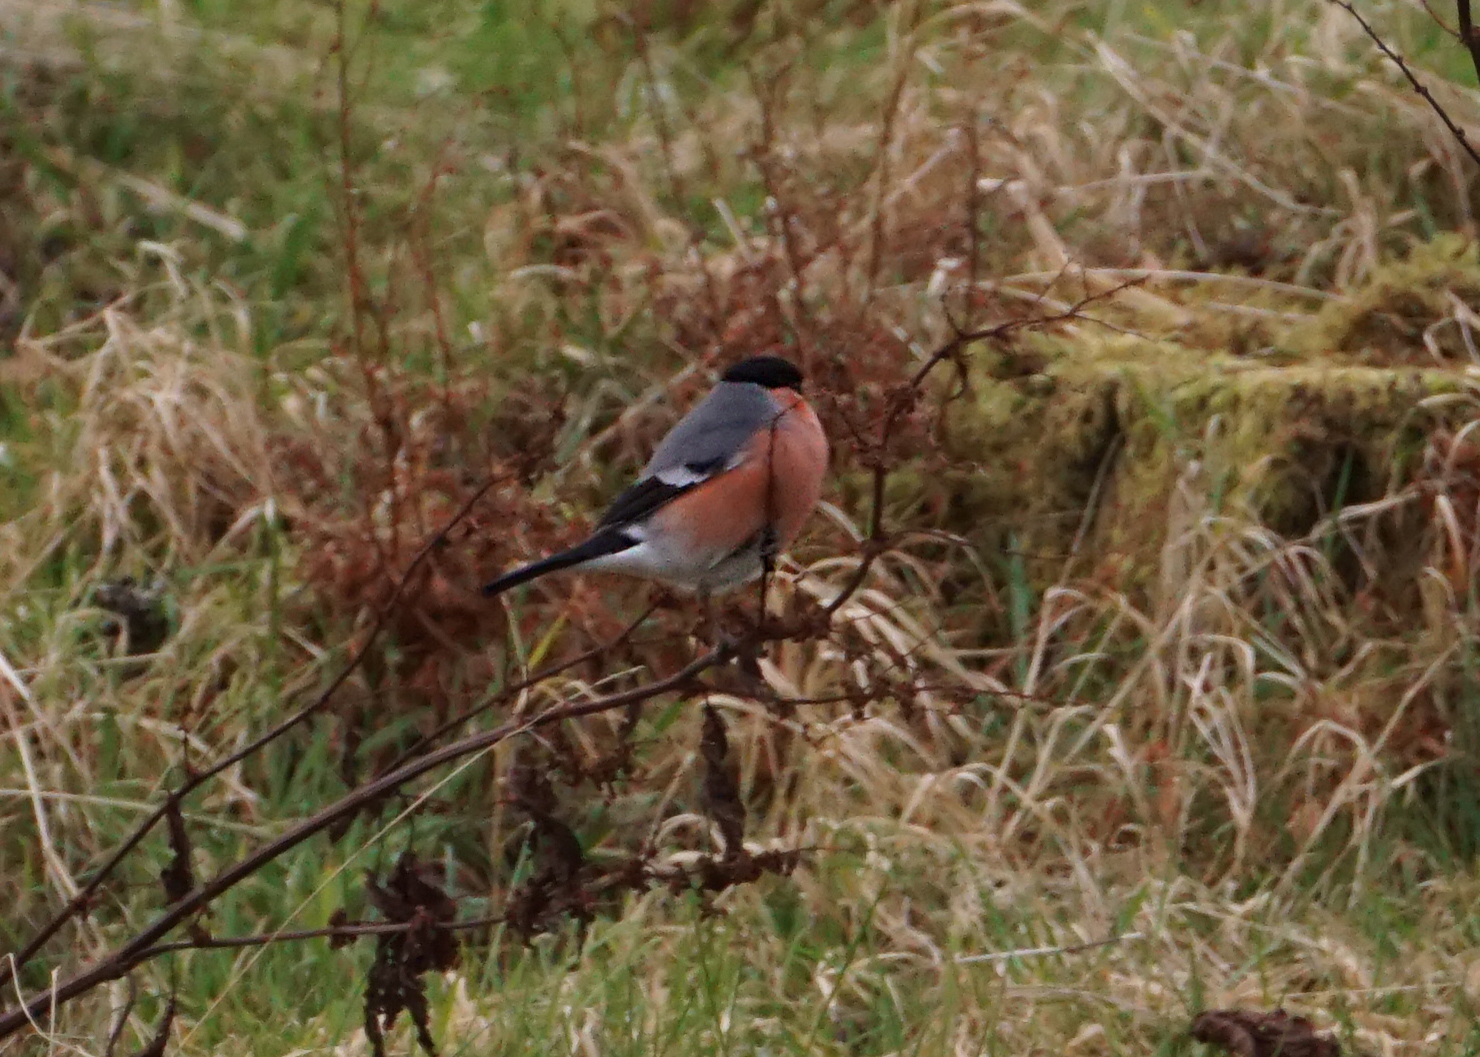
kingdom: Animalia
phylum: Chordata
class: Aves
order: Passeriformes
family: Fringillidae
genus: Pyrrhula
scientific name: Pyrrhula pyrrhula
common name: Eurasian bullfinch
